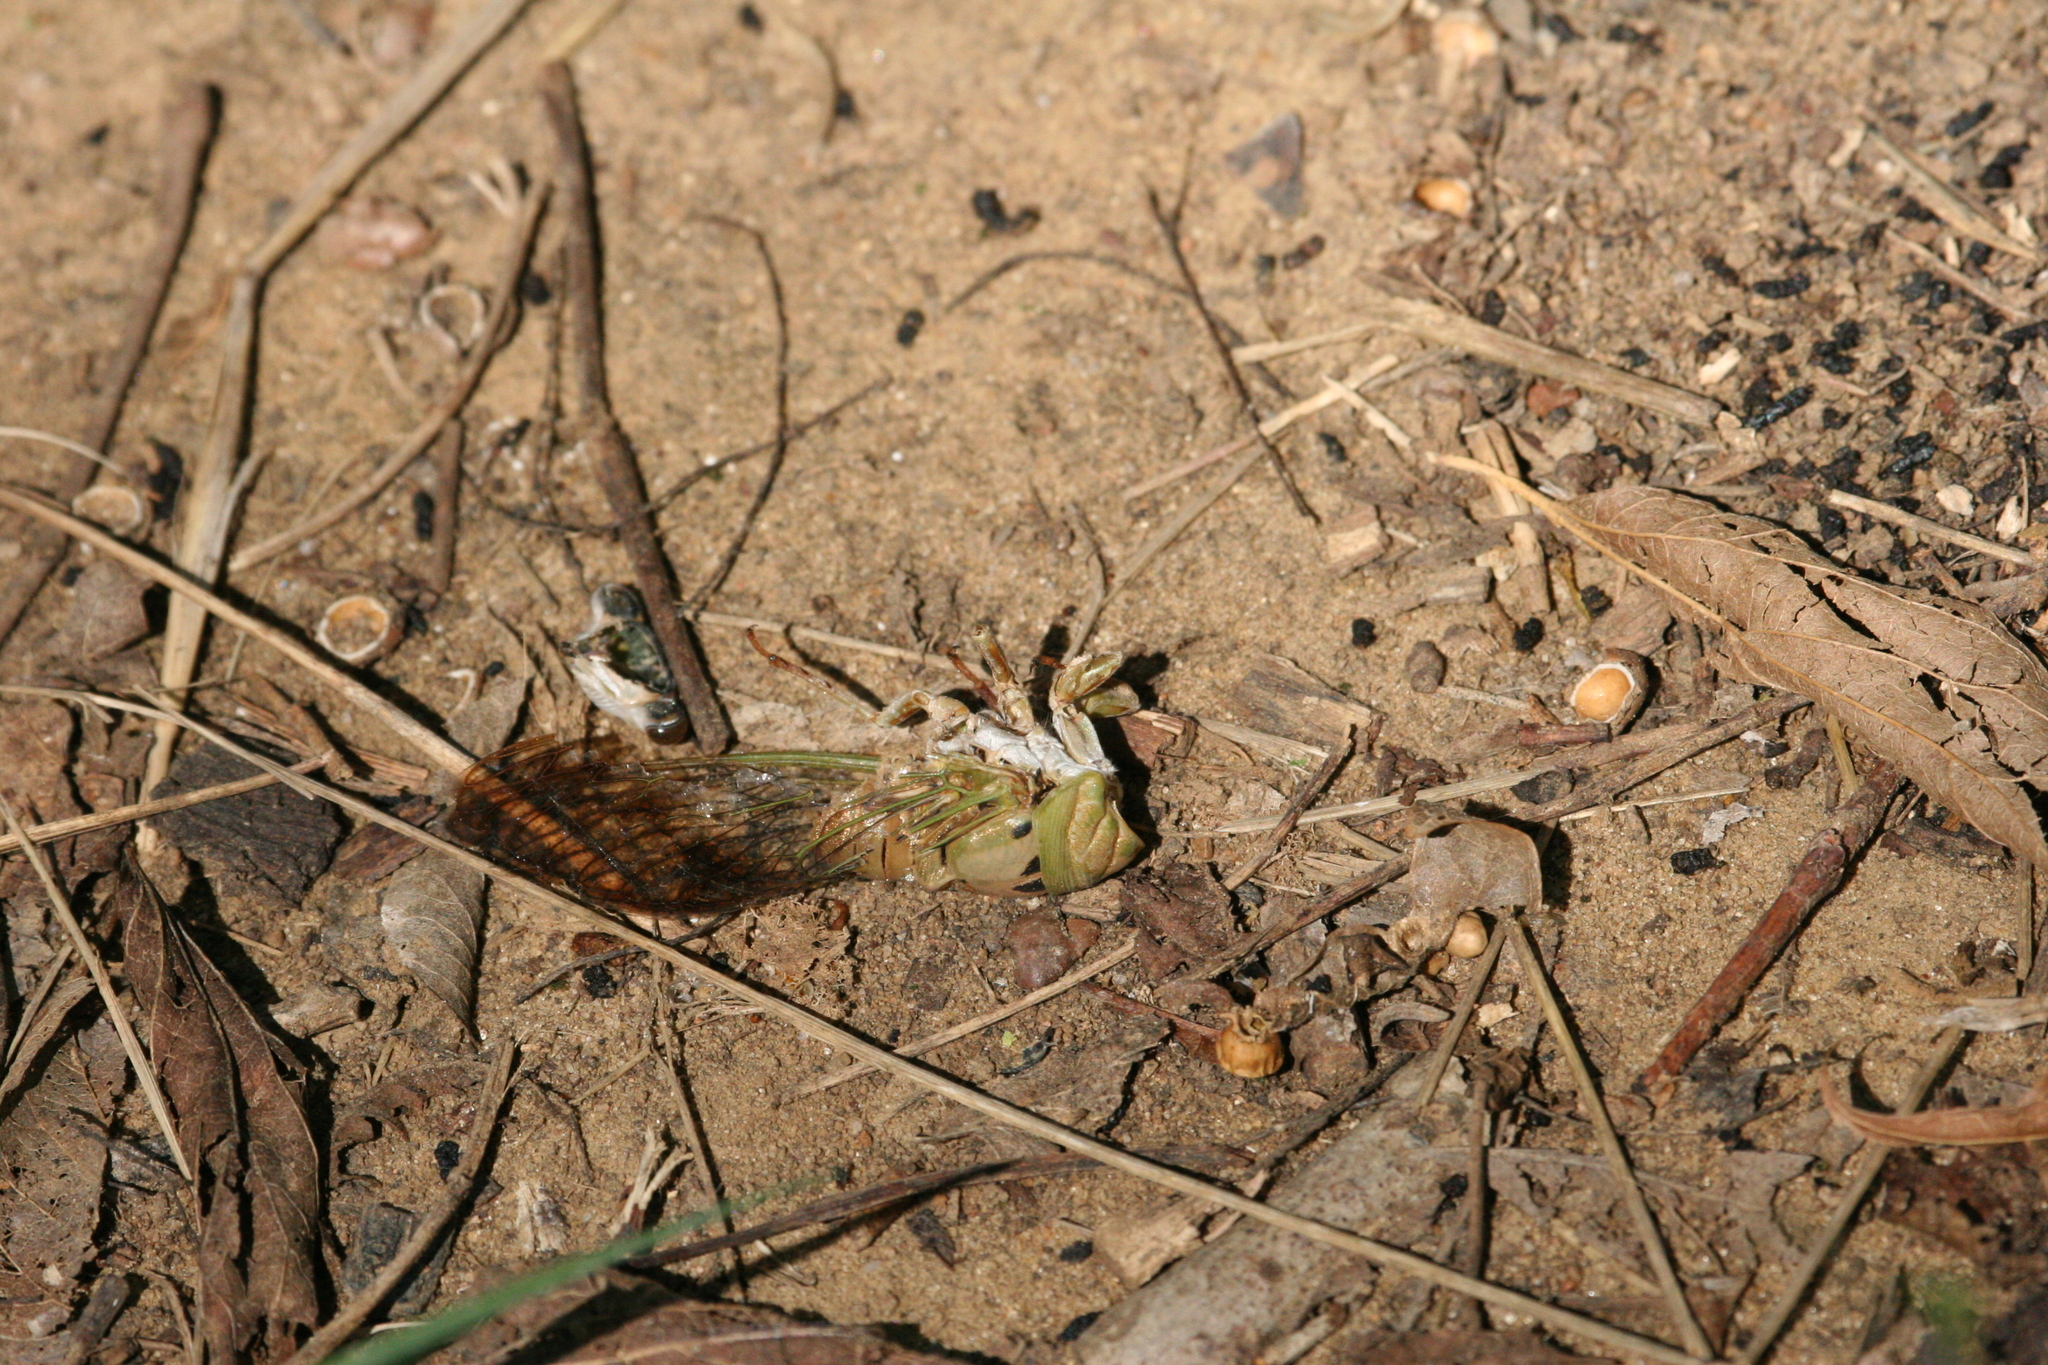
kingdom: Animalia
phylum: Arthropoda
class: Insecta
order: Hemiptera
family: Cicadidae
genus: Neotibicen
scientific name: Neotibicen superbus
